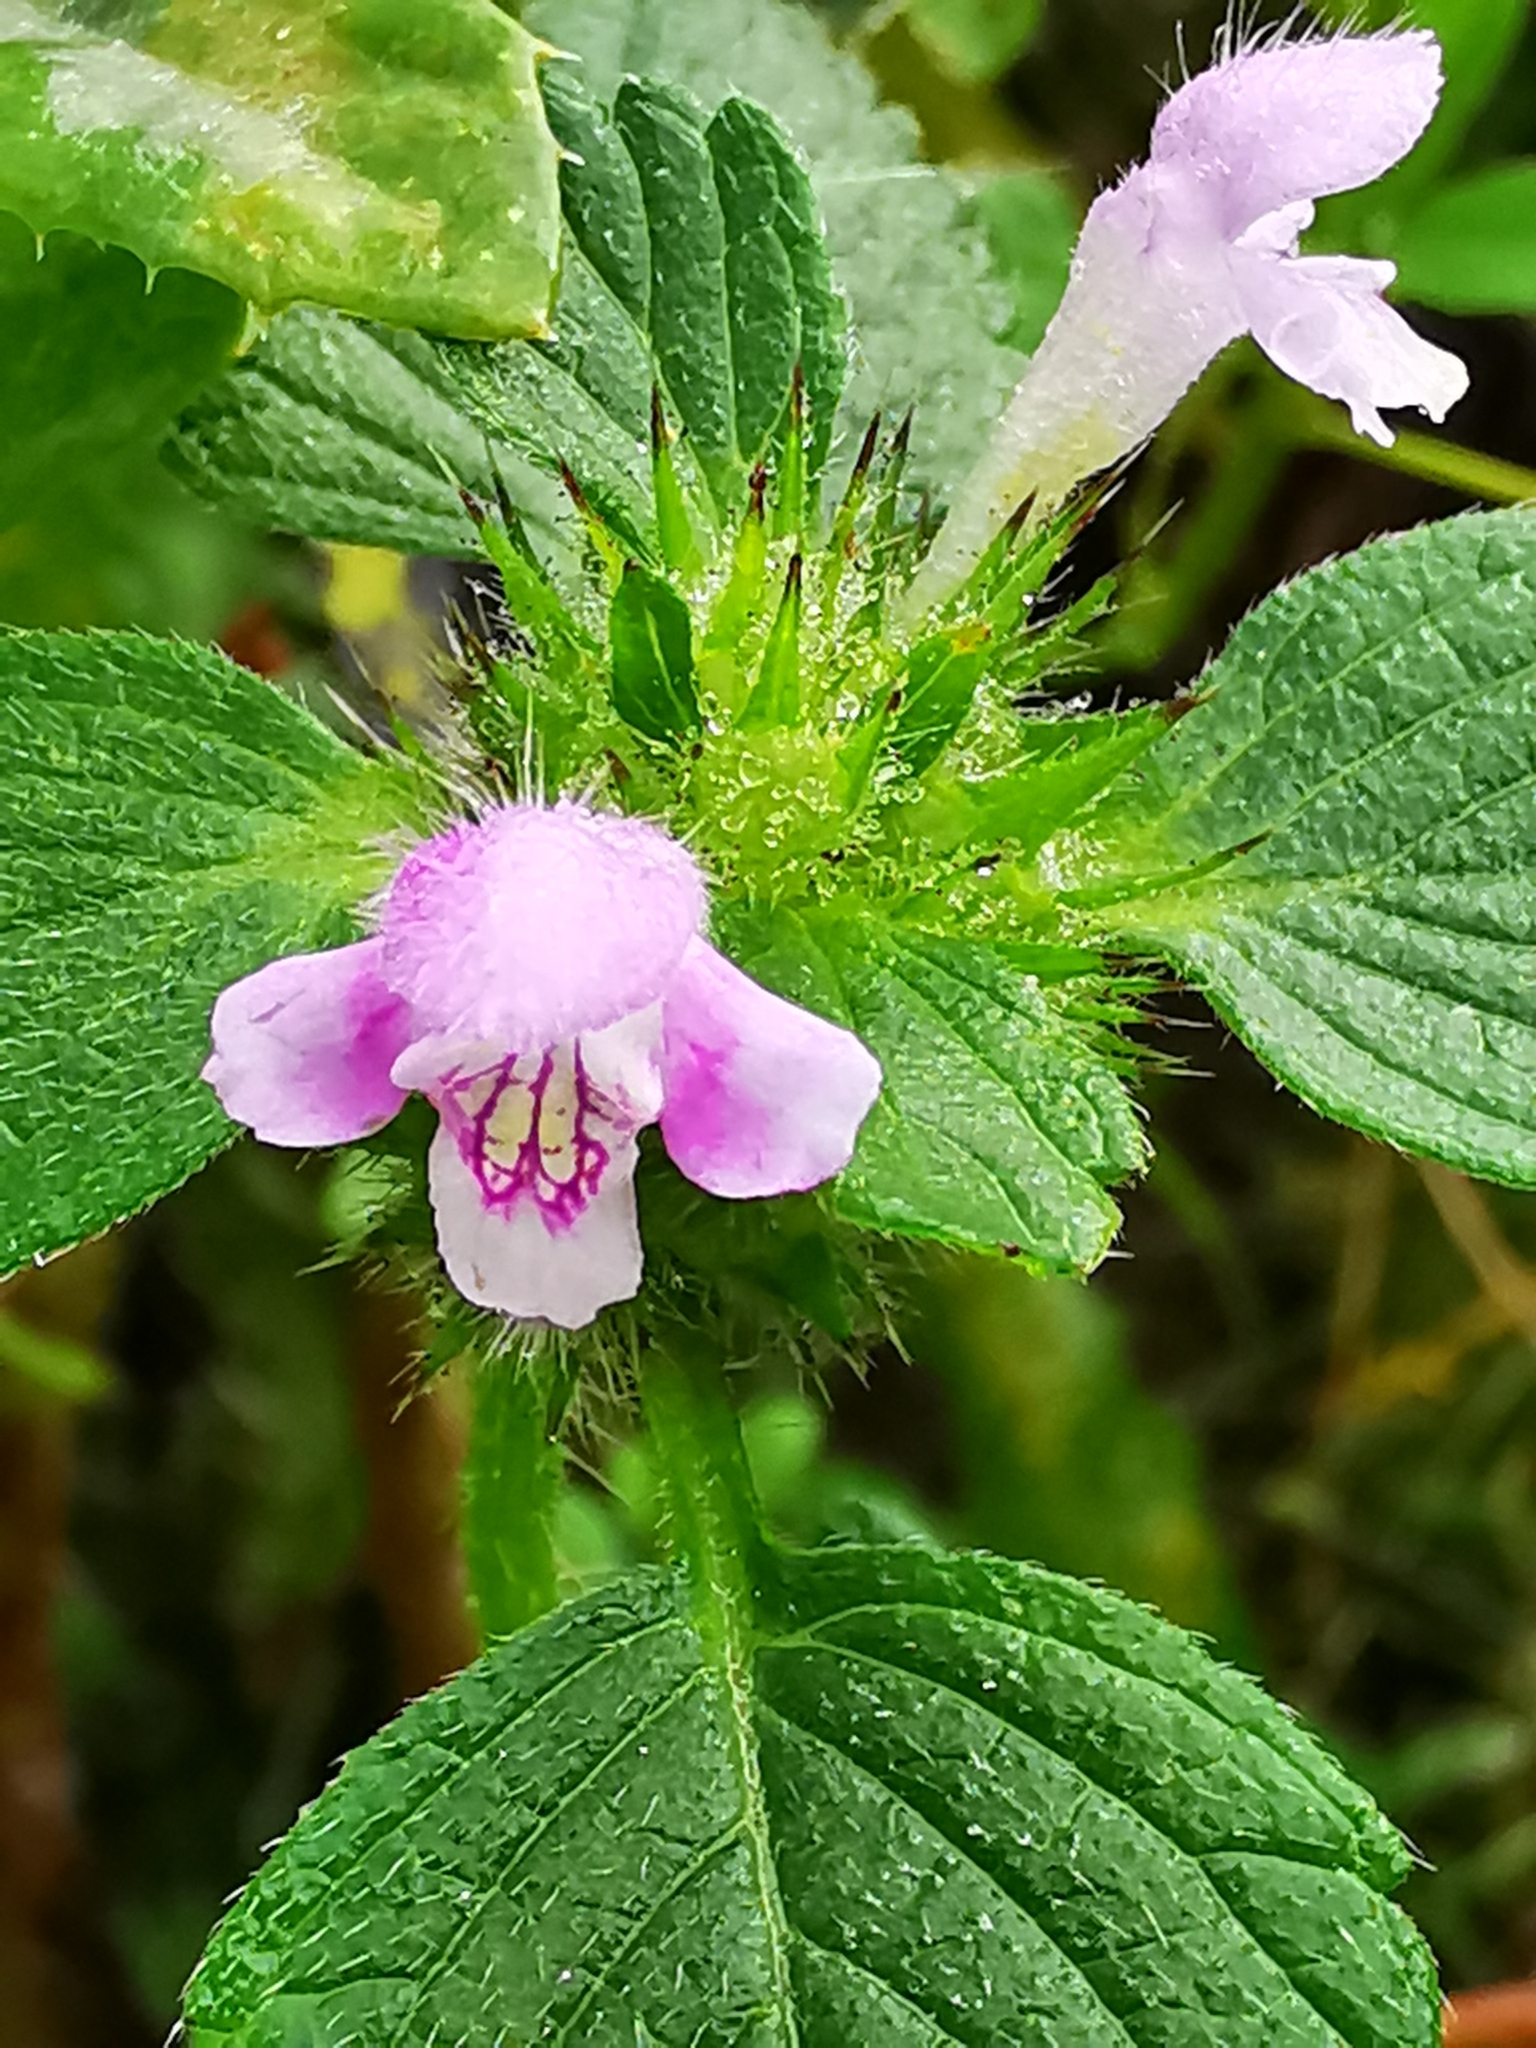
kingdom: Plantae
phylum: Tracheophyta
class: Magnoliopsida
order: Lamiales
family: Lamiaceae
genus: Galeopsis
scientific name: Galeopsis tetrahit
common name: Common hemp-nettle
